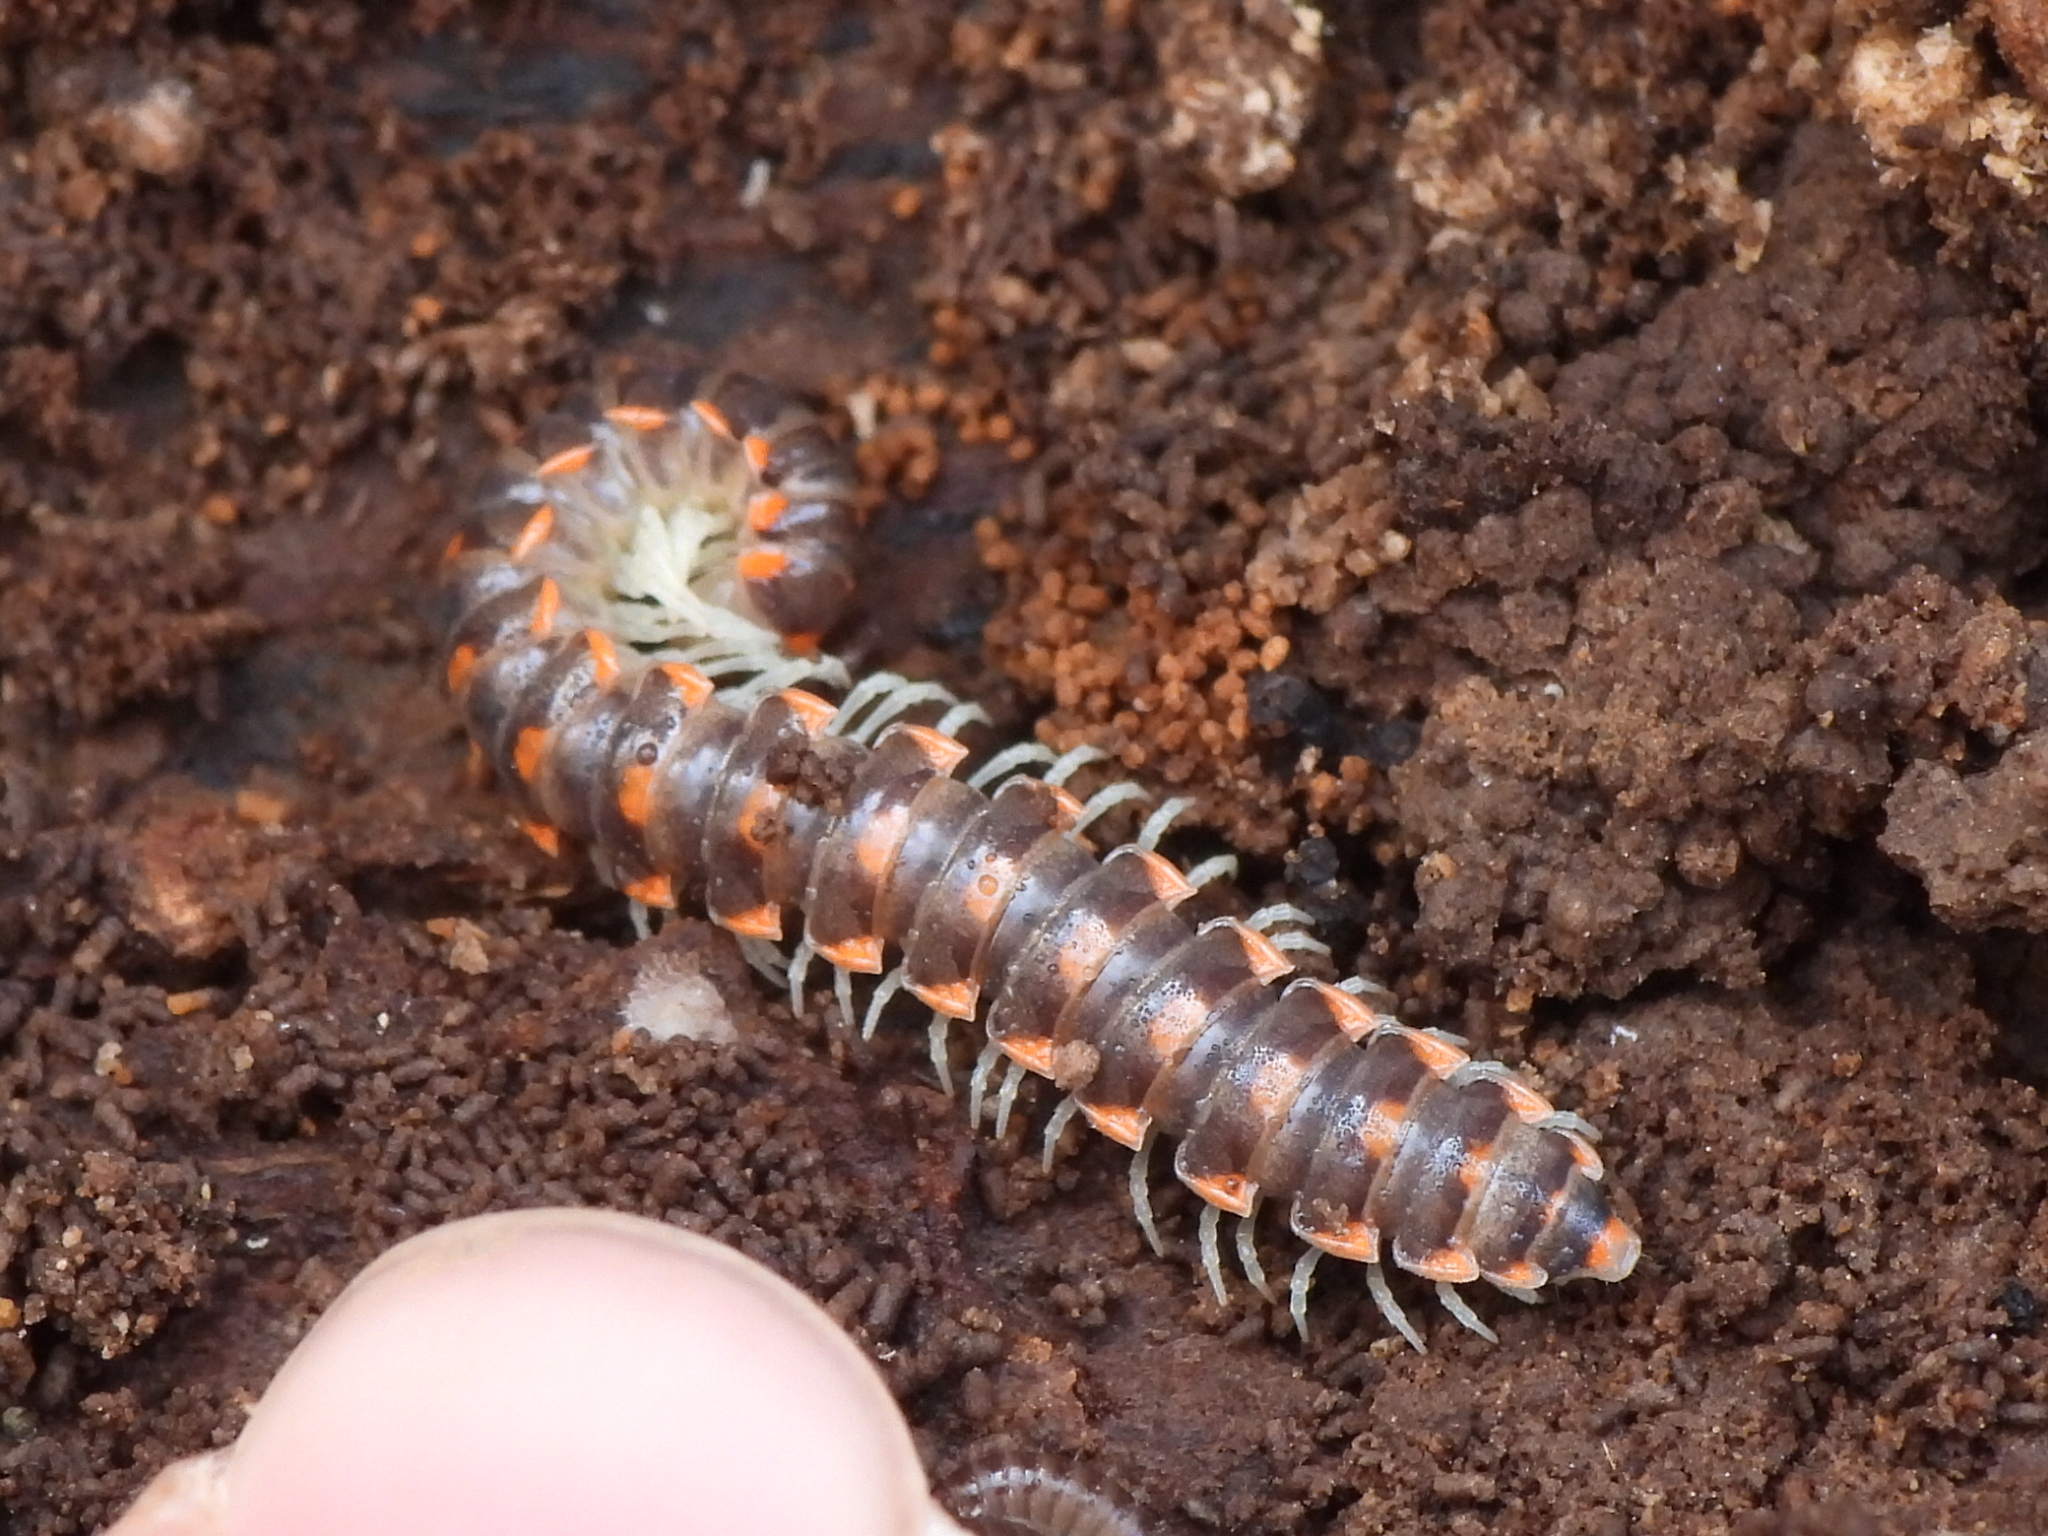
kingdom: Animalia
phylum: Arthropoda
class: Diplopoda
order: Polydesmida
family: Xystodesmidae
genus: Euryurus
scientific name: Euryurus leachii
